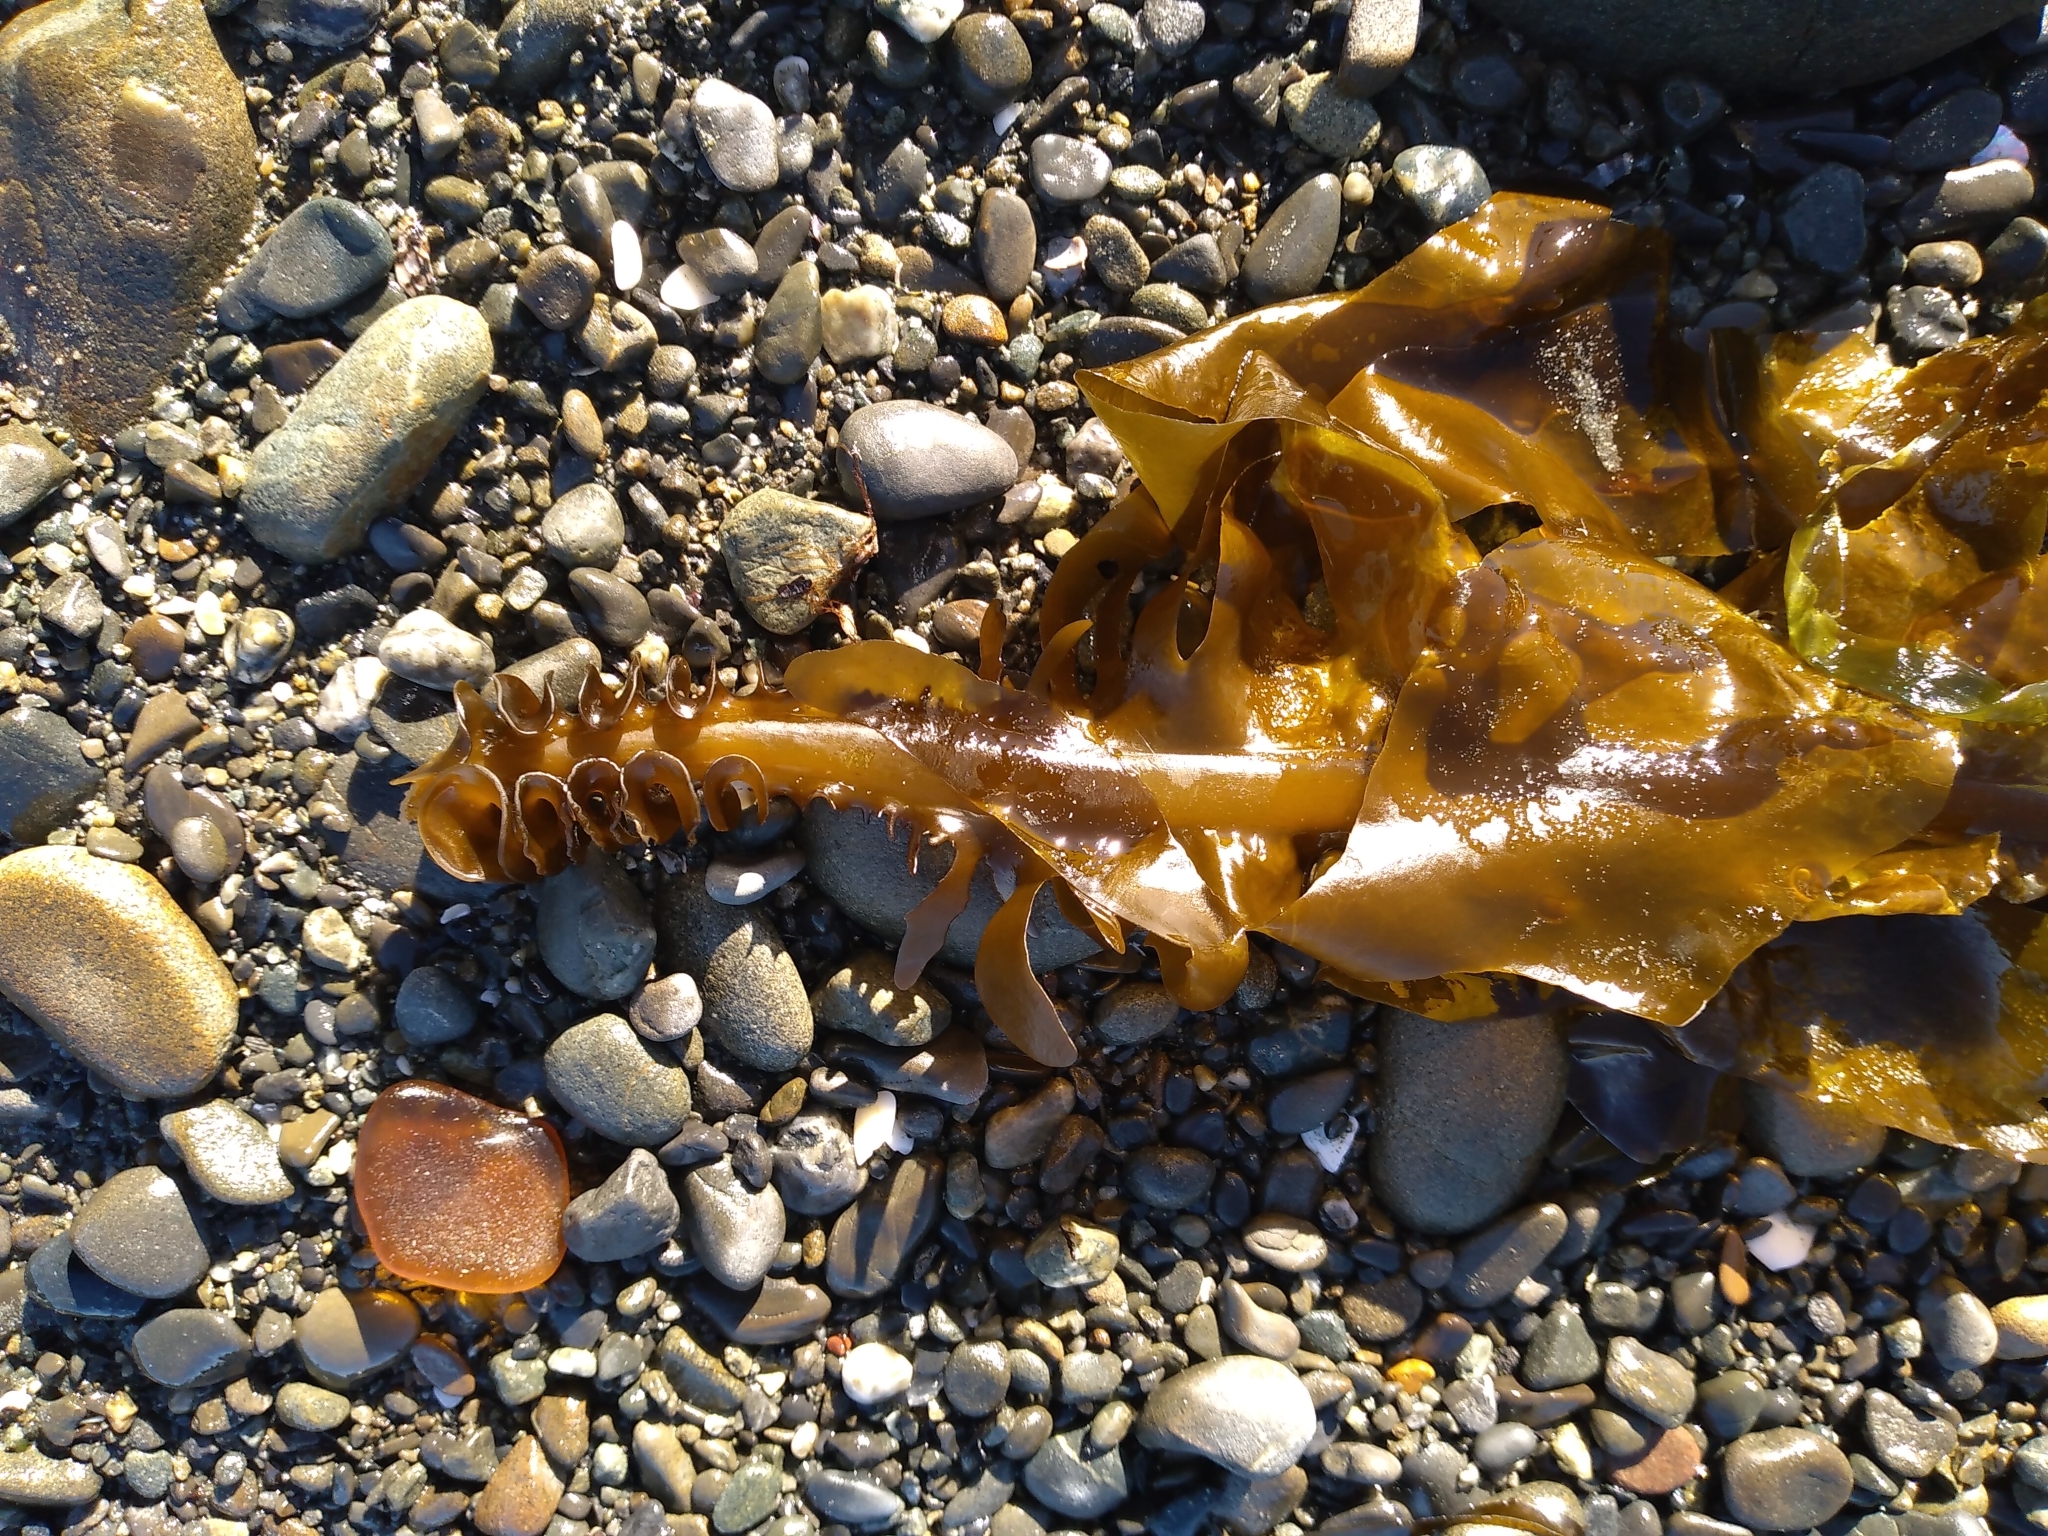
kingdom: Chromista
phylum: Ochrophyta
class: Phaeophyceae
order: Laminariales
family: Alariaceae
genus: Undaria
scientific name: Undaria pinnatifida
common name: Asian kelp
